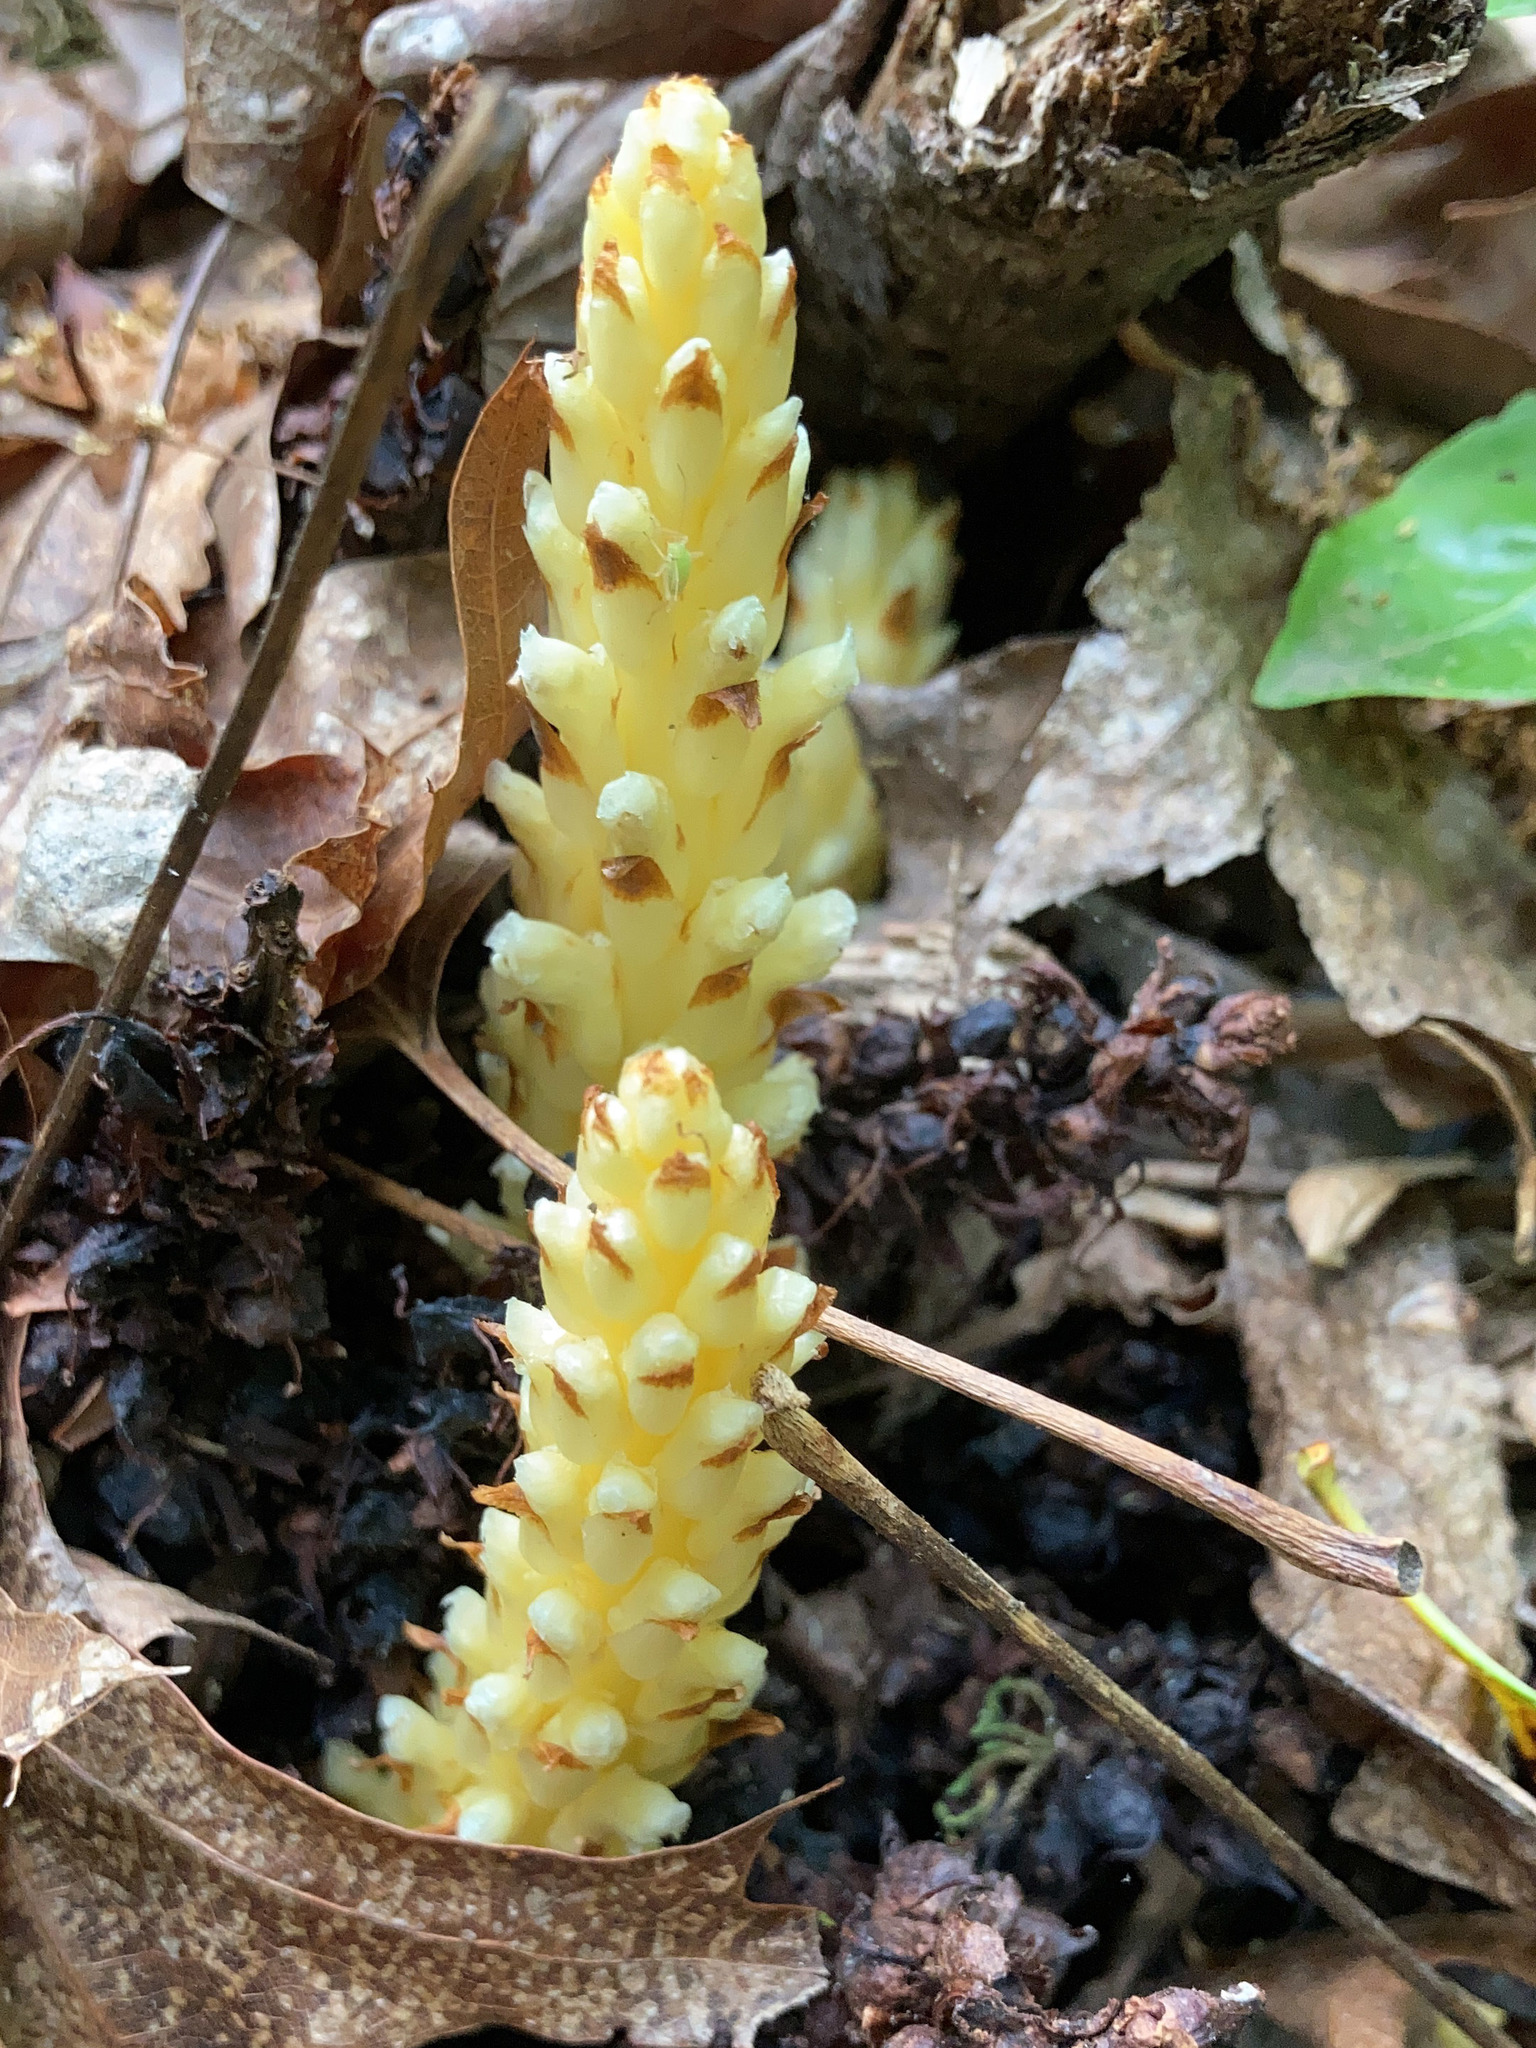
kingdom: Plantae
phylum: Tracheophyta
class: Magnoliopsida
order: Lamiales
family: Orobanchaceae
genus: Conopholis
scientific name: Conopholis americana
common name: American cancer-root
